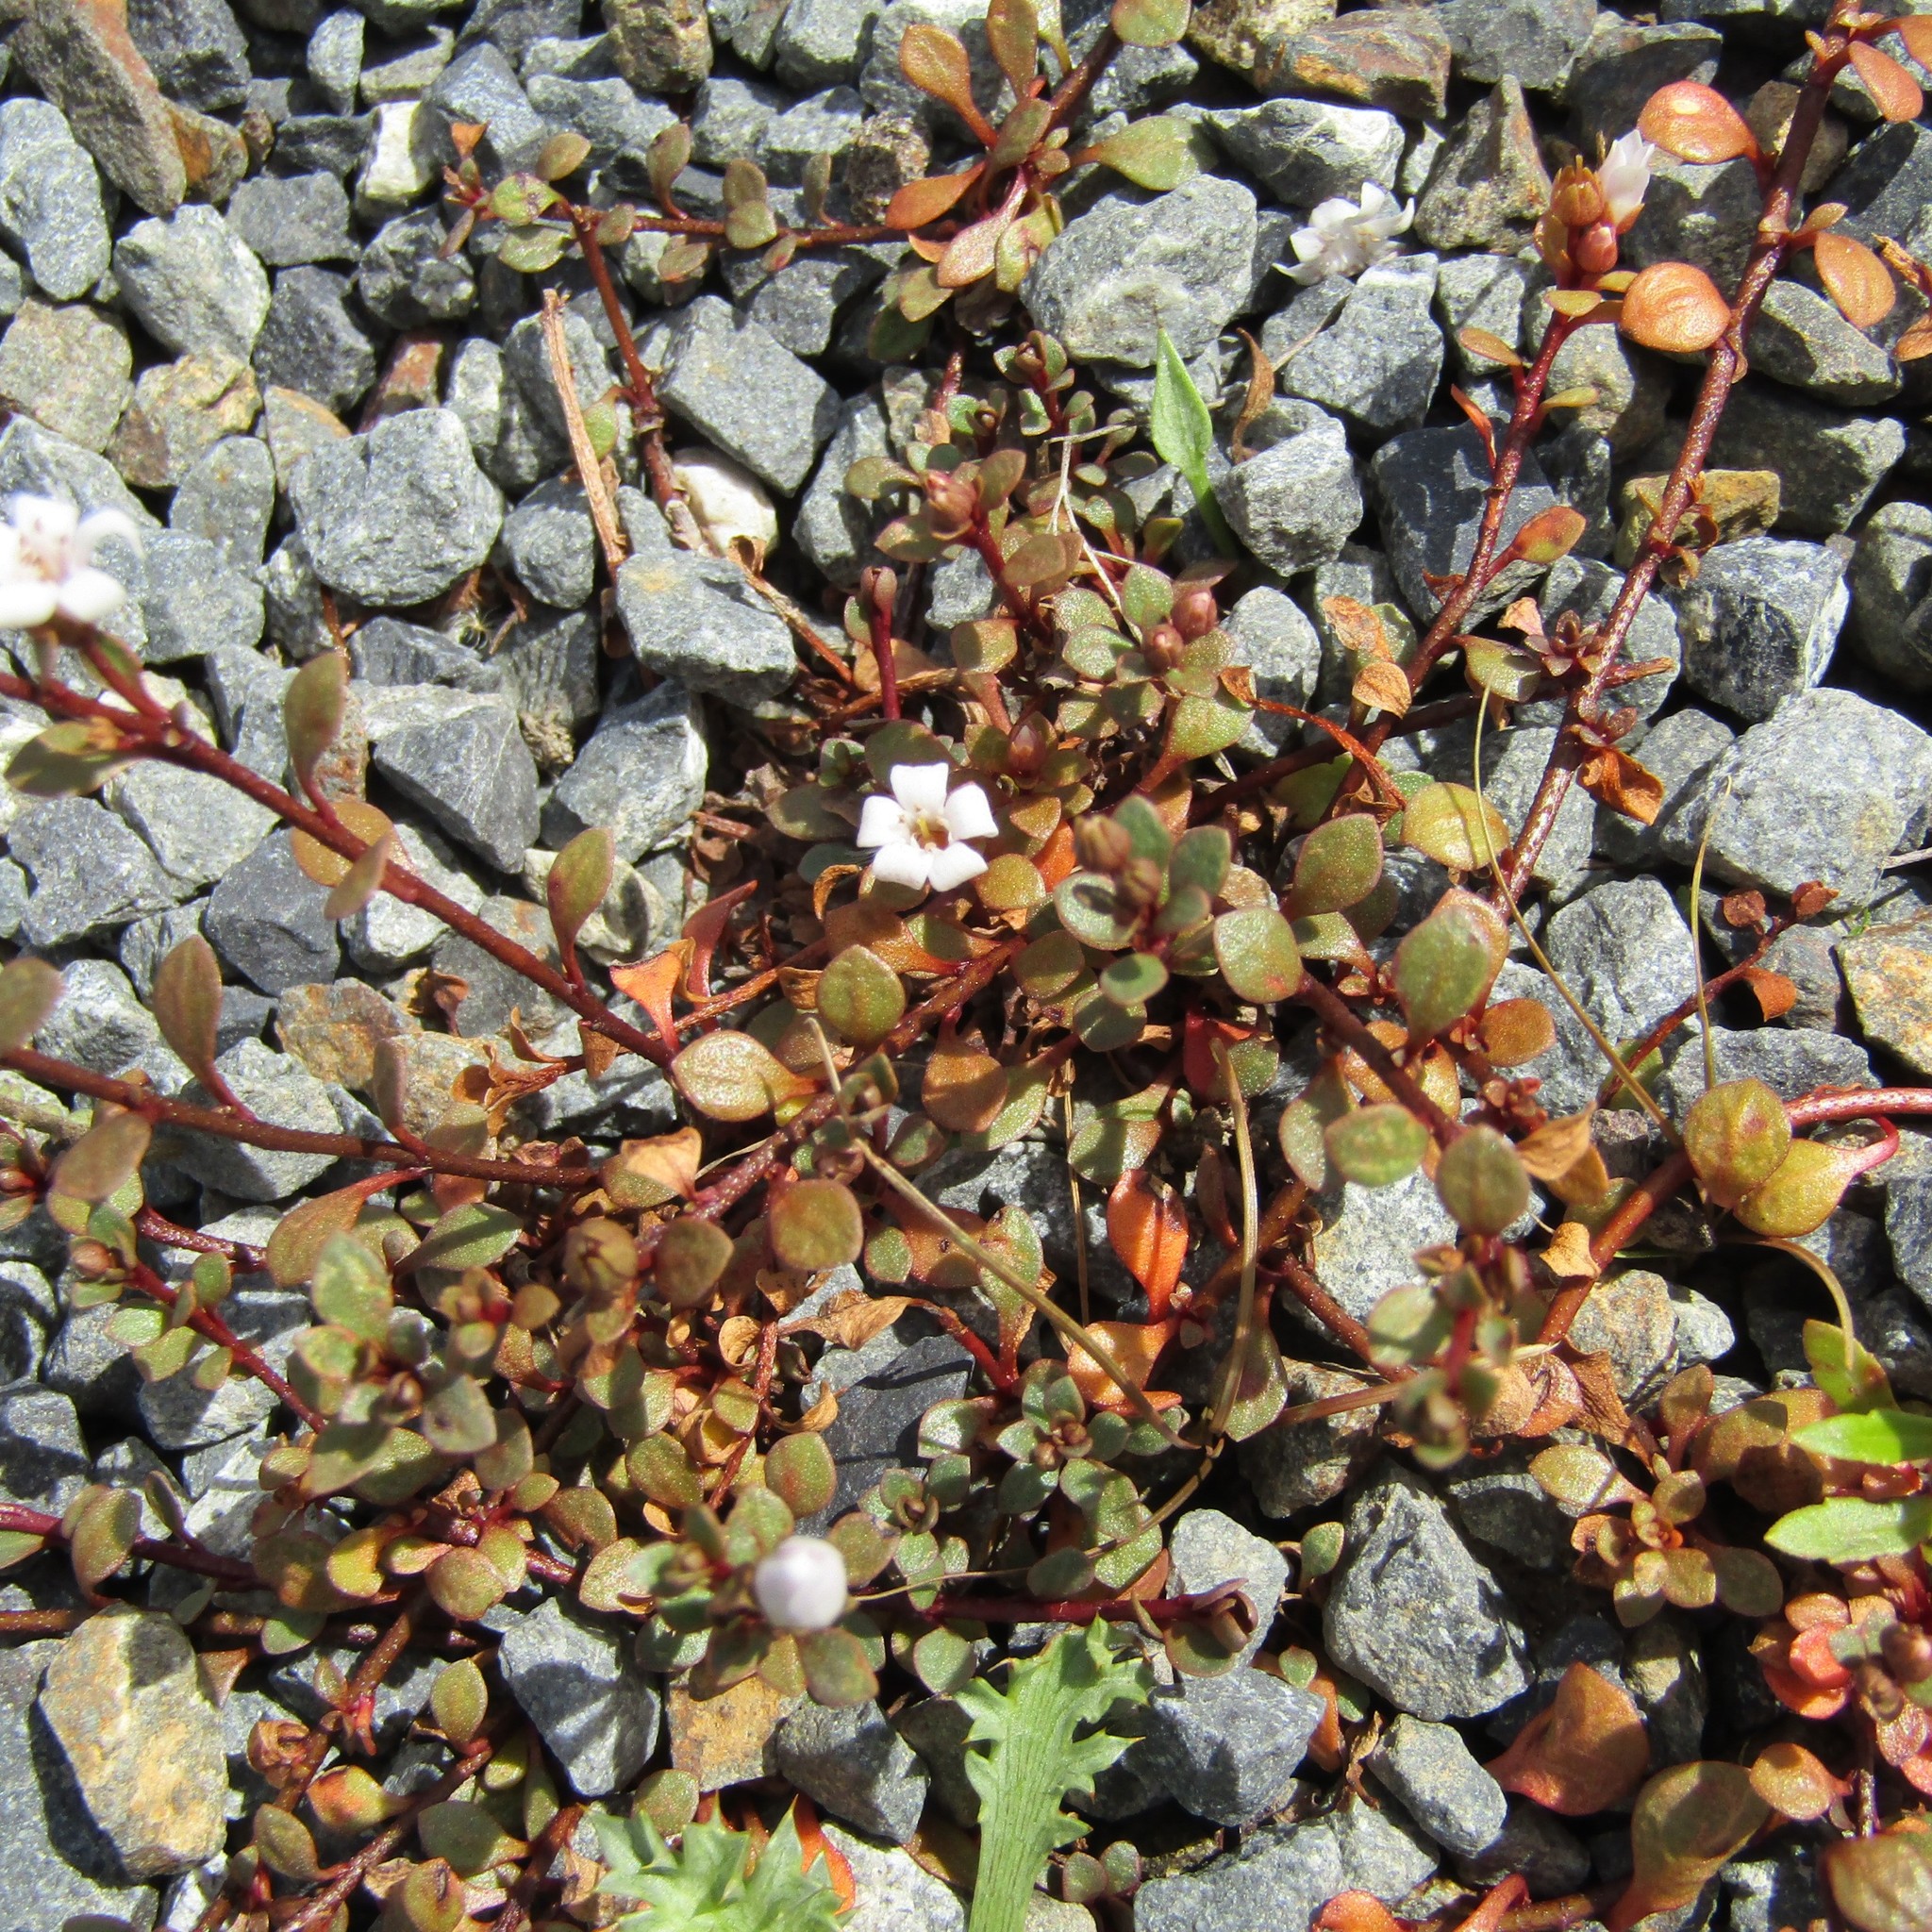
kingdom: Plantae
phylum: Tracheophyta
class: Magnoliopsida
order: Ericales
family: Primulaceae
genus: Samolus
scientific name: Samolus repens
